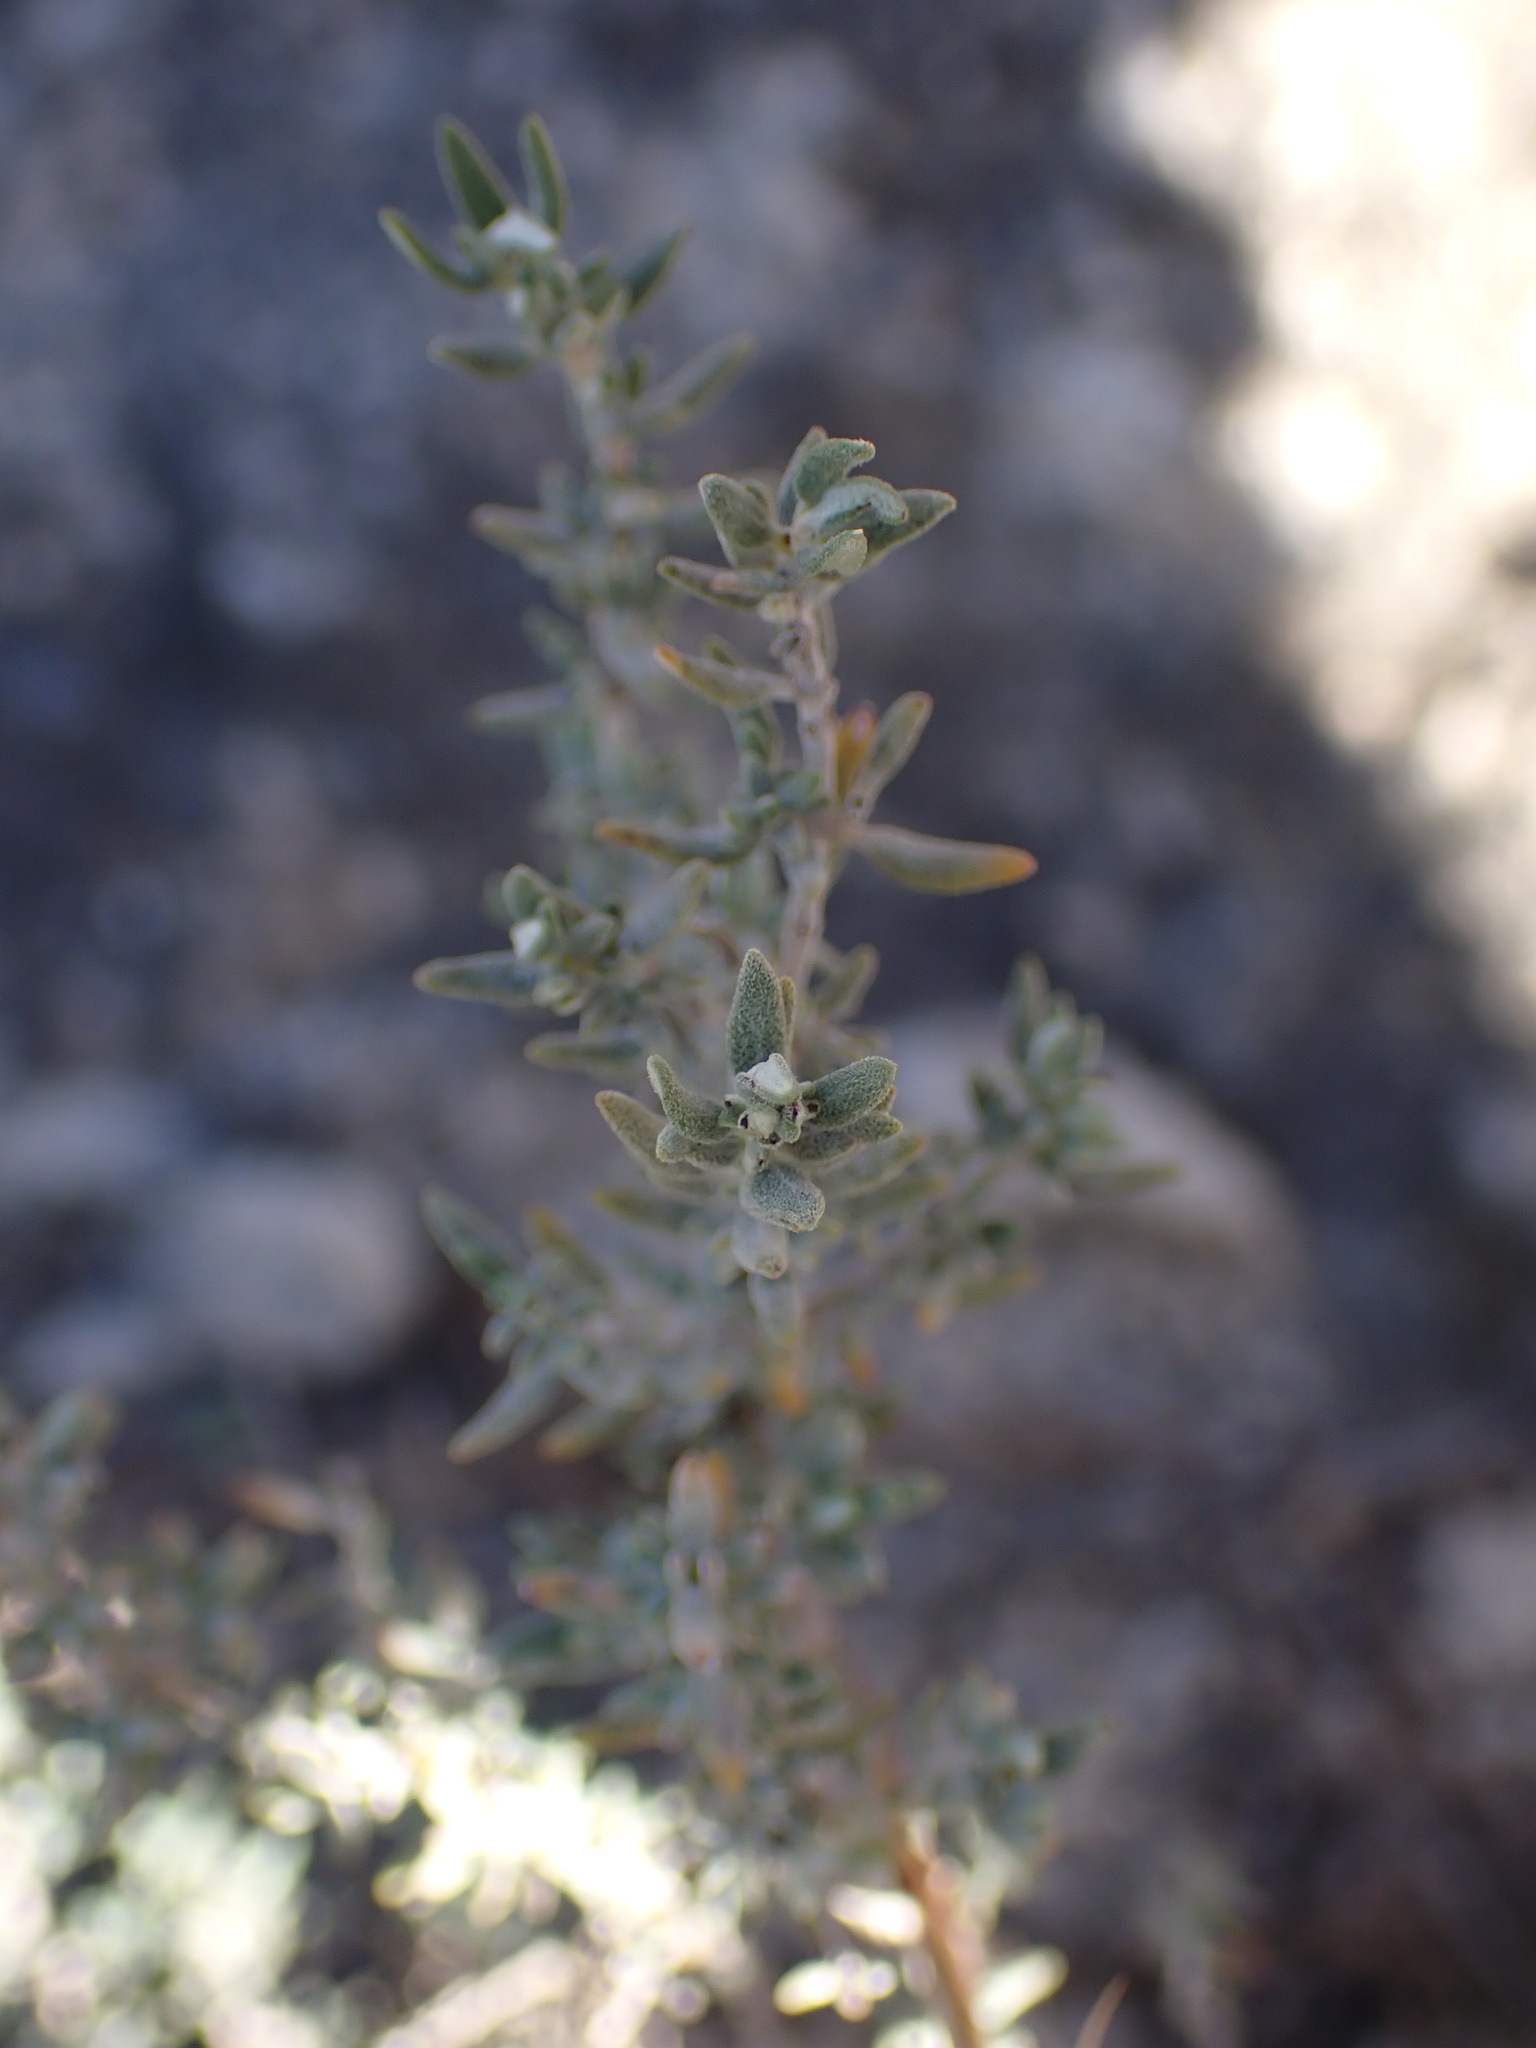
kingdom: Plantae
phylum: Tracheophyta
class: Magnoliopsida
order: Lamiales
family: Lamiaceae
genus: Thymus
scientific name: Thymus vulgaris
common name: Garden thyme
